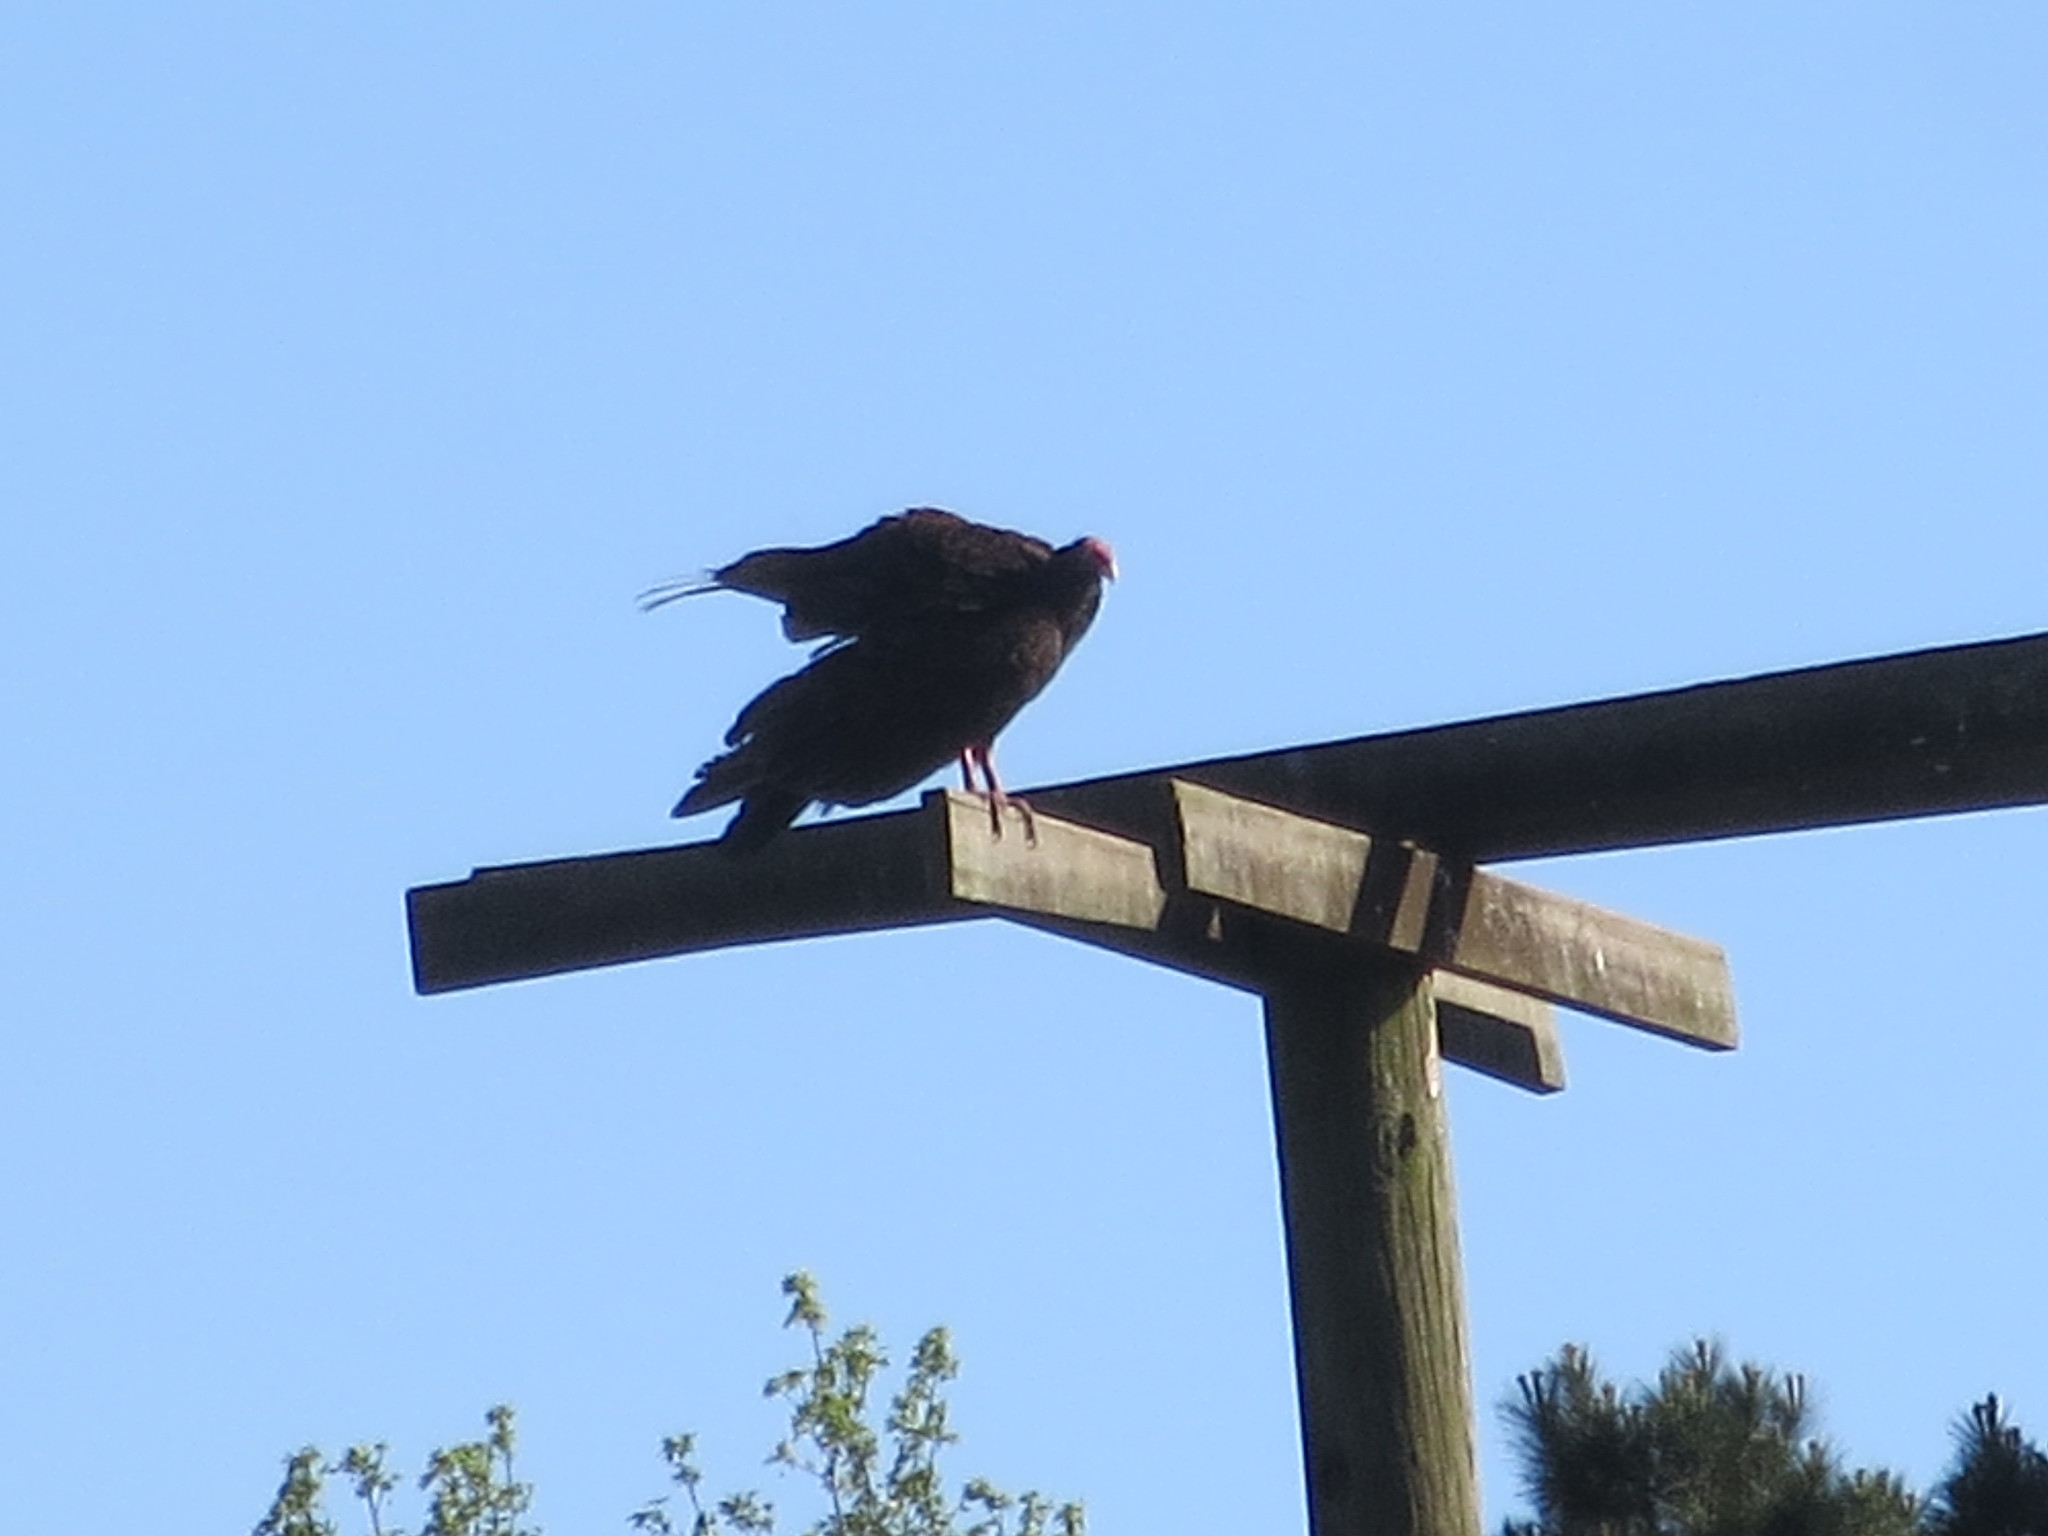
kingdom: Animalia
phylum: Chordata
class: Aves
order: Accipitriformes
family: Cathartidae
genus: Cathartes
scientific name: Cathartes aura
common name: Turkey vulture
